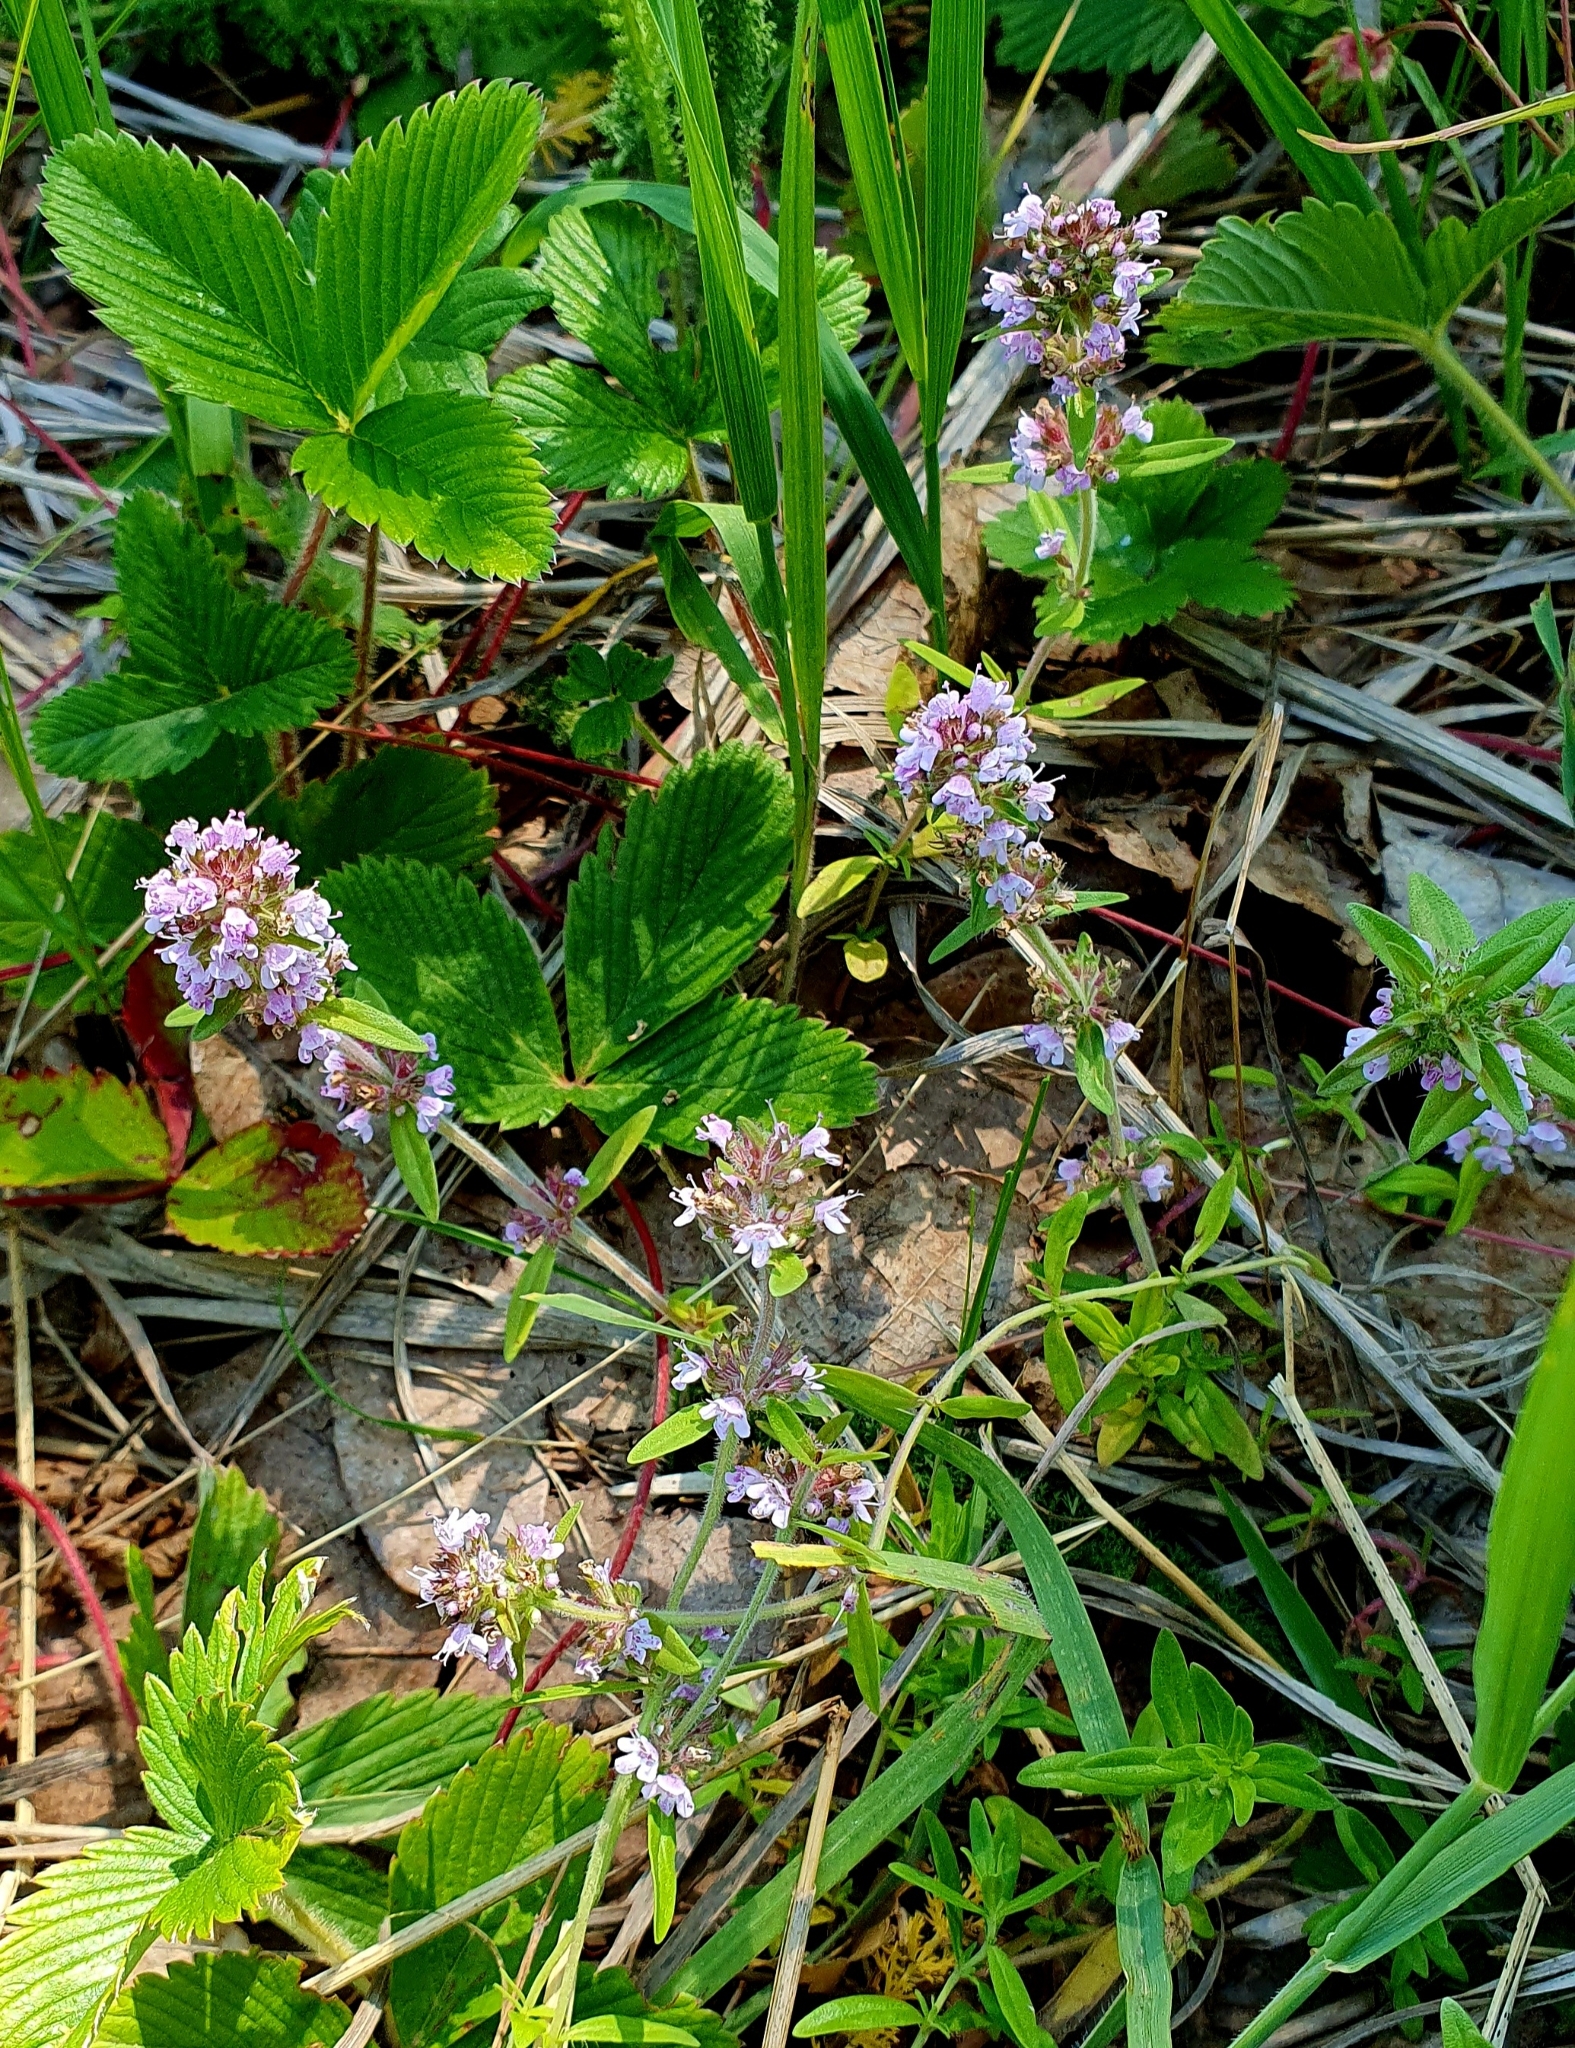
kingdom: Plantae
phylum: Tracheophyta
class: Magnoliopsida
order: Lamiales
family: Lamiaceae
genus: Thymus
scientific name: Thymus pannonicus
